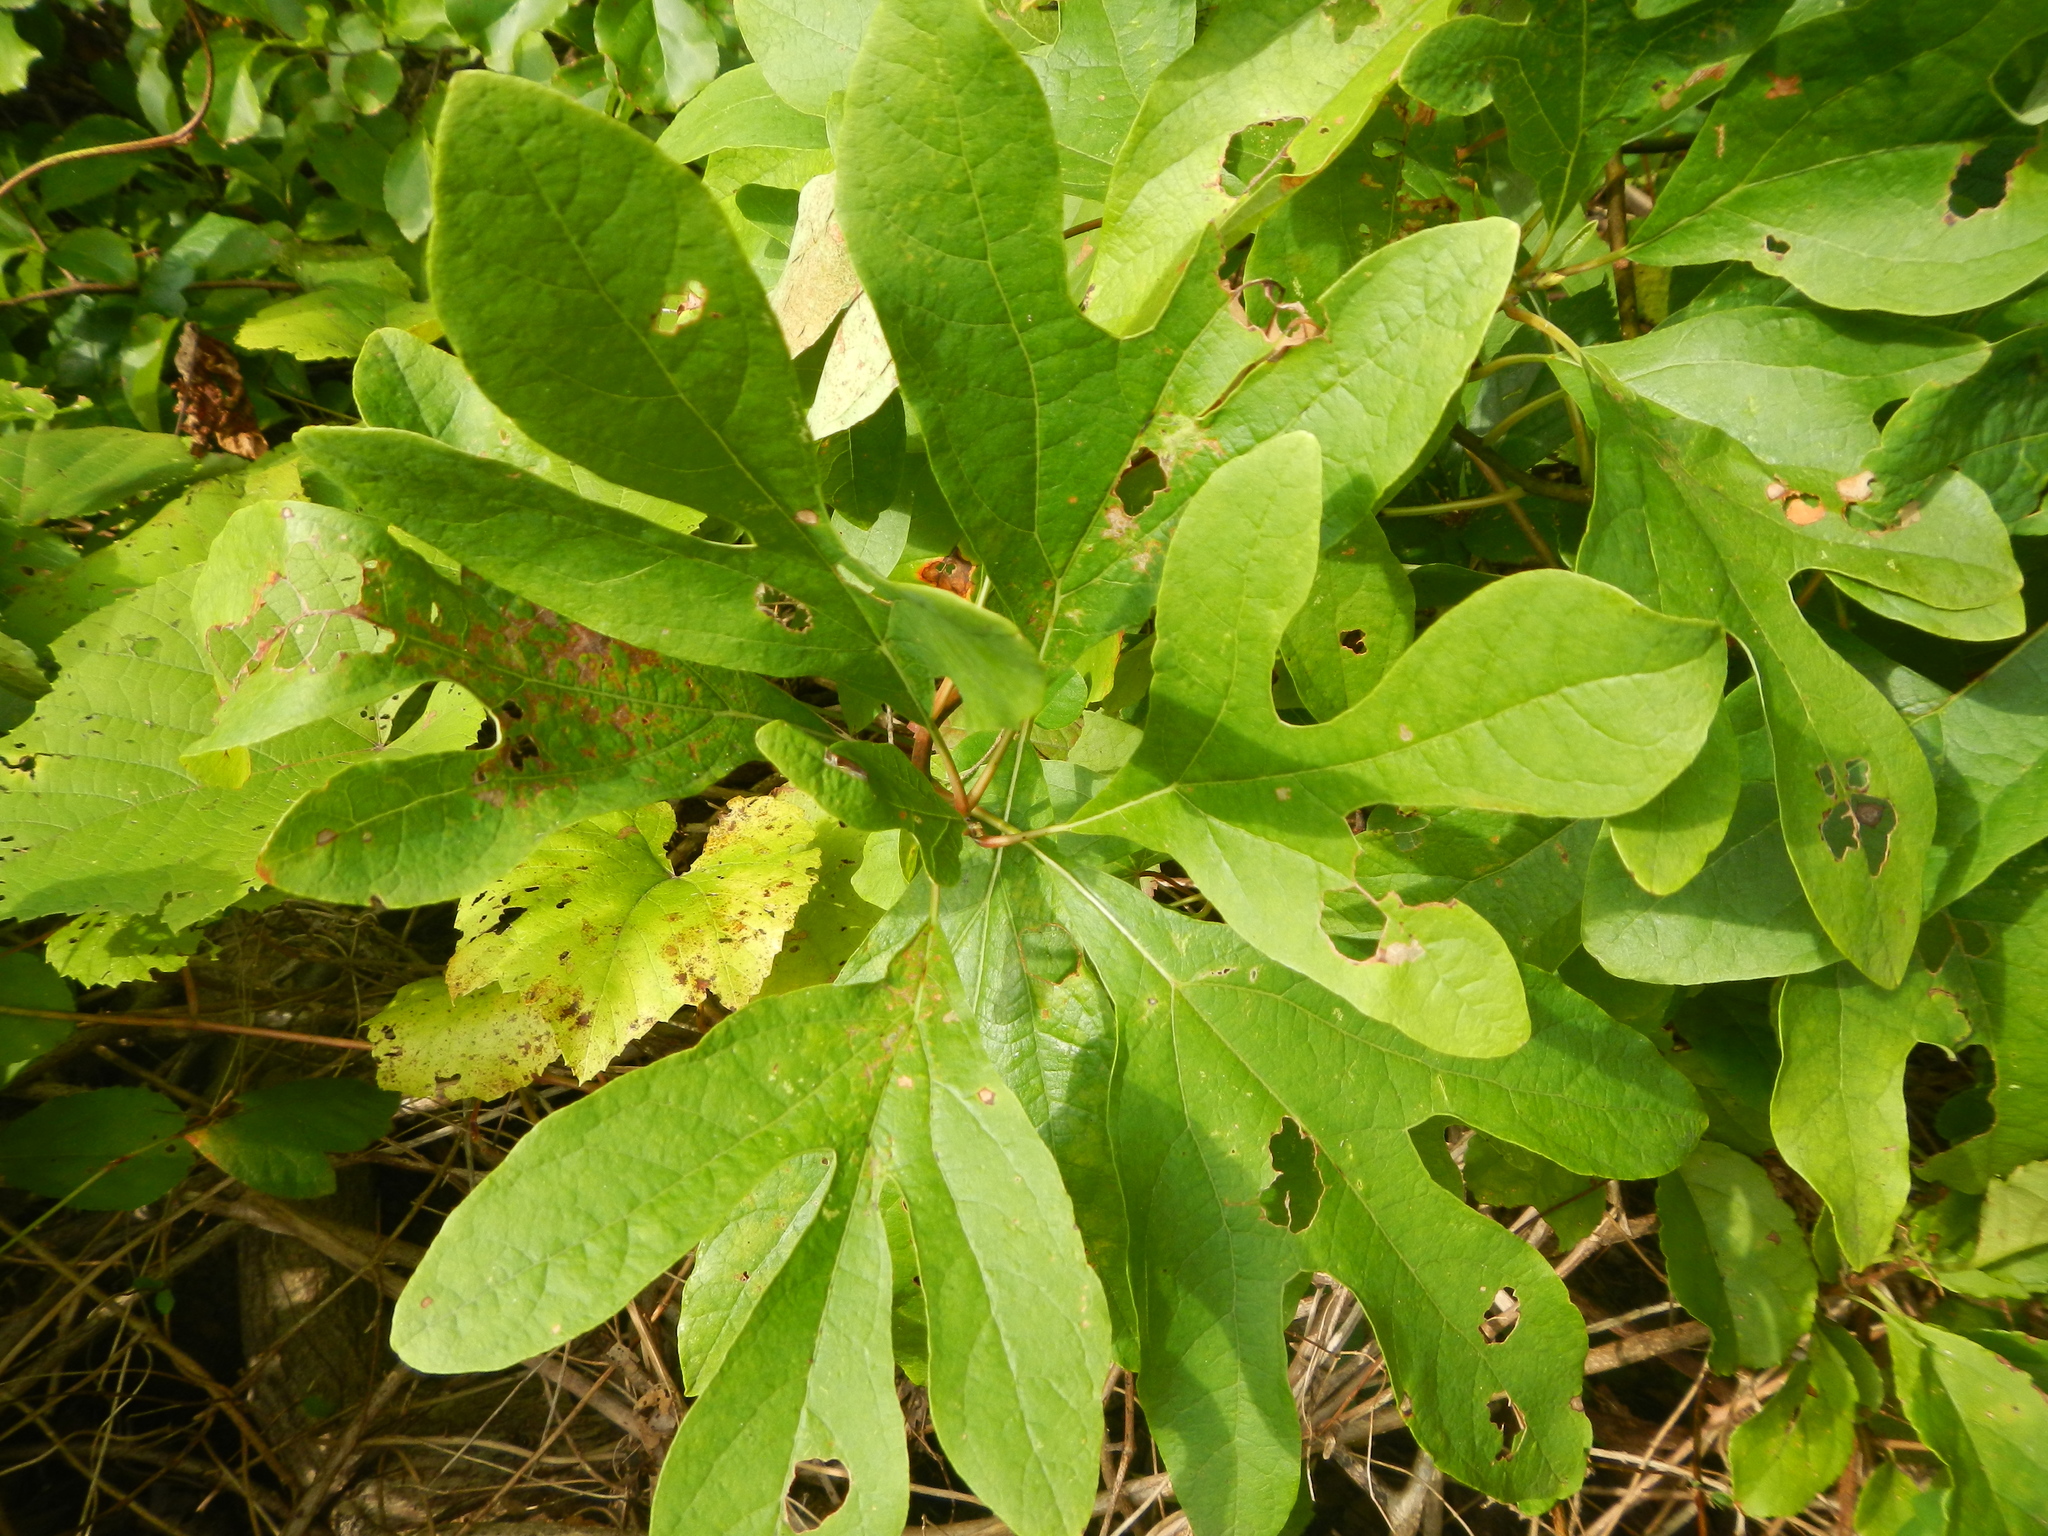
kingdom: Plantae
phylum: Tracheophyta
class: Magnoliopsida
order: Laurales
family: Lauraceae
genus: Sassafras
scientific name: Sassafras albidum
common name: Sassafras
